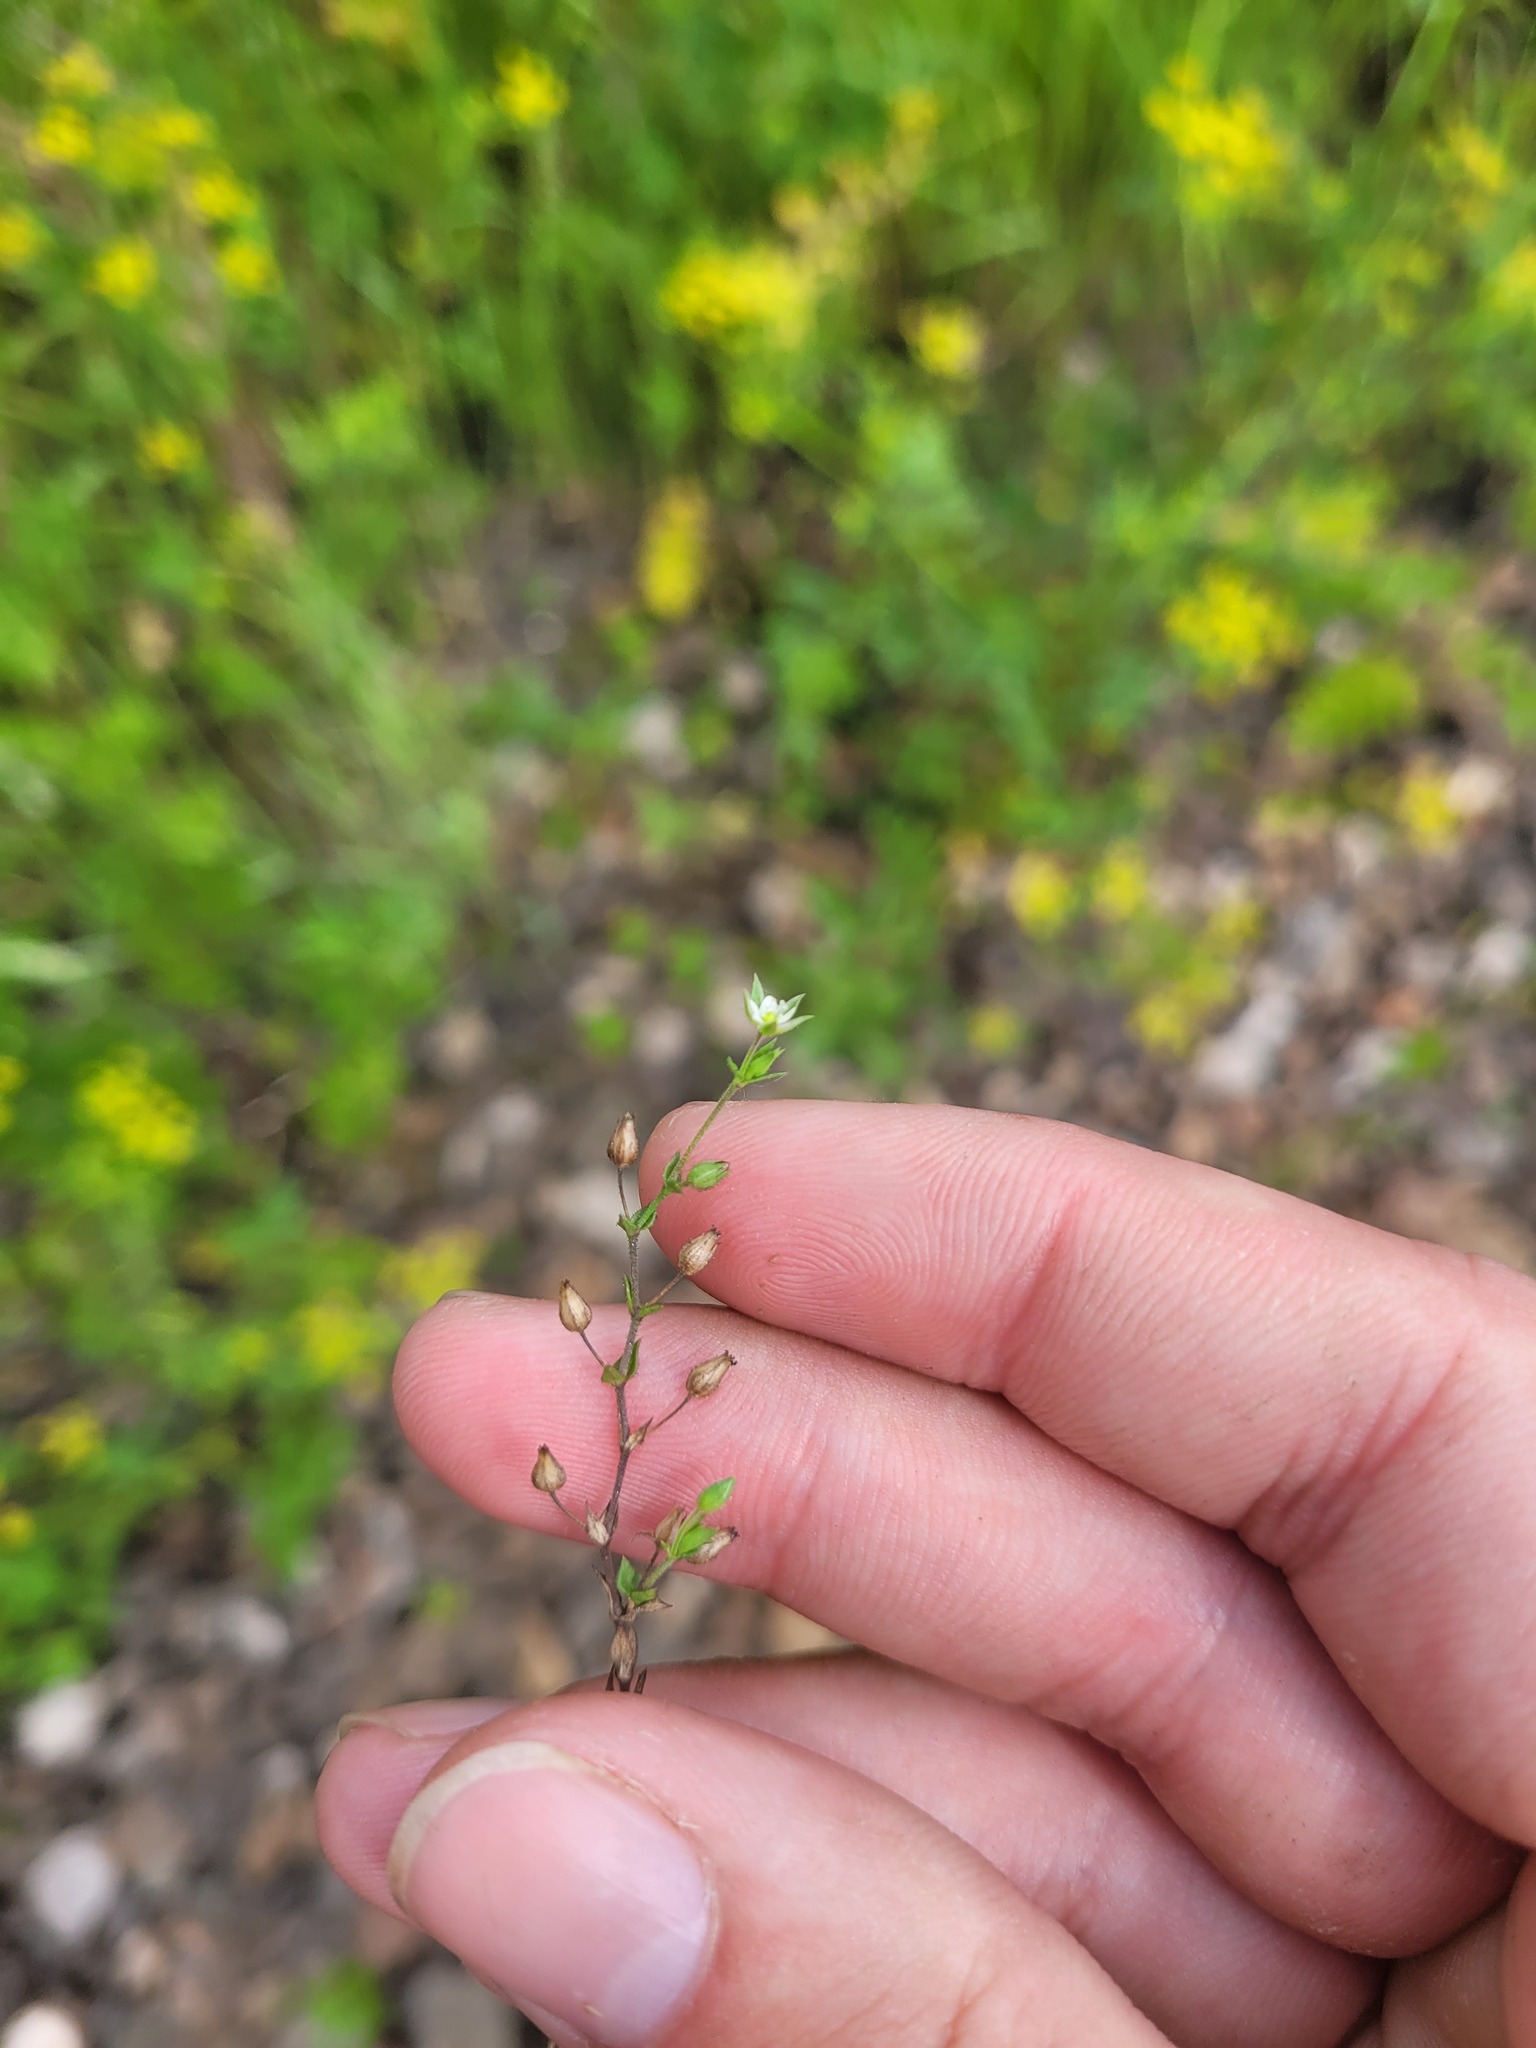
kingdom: Plantae
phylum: Tracheophyta
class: Magnoliopsida
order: Caryophyllales
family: Caryophyllaceae
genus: Arenaria
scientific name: Arenaria serpyllifolia
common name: Thyme-leaved sandwort
